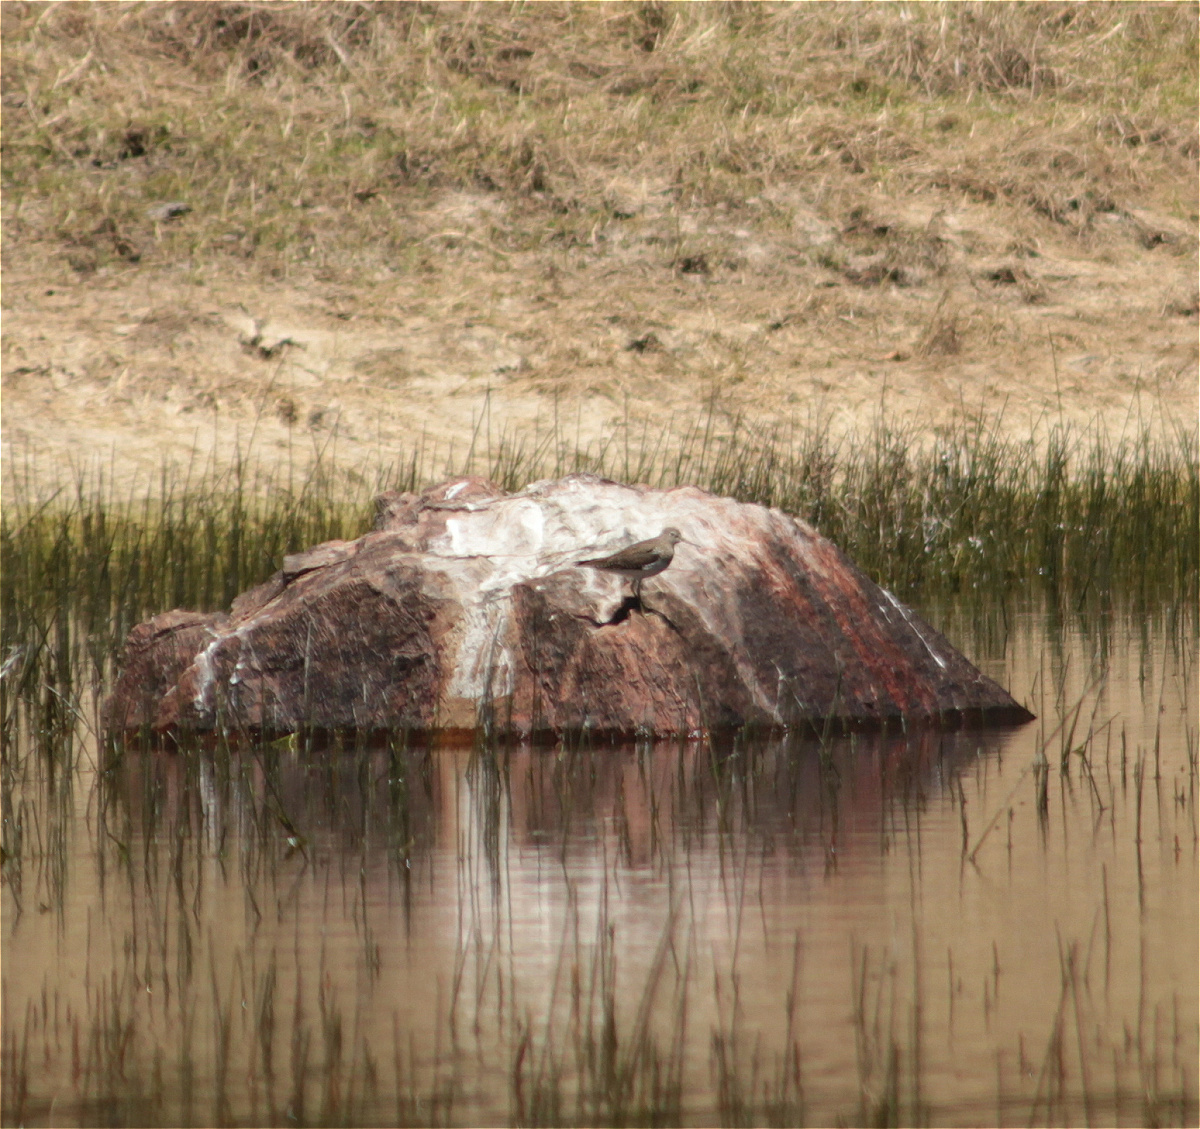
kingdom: Animalia
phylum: Chordata
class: Aves
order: Charadriiformes
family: Scolopacidae
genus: Tringa
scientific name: Tringa solitaria
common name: Solitary sandpiper
